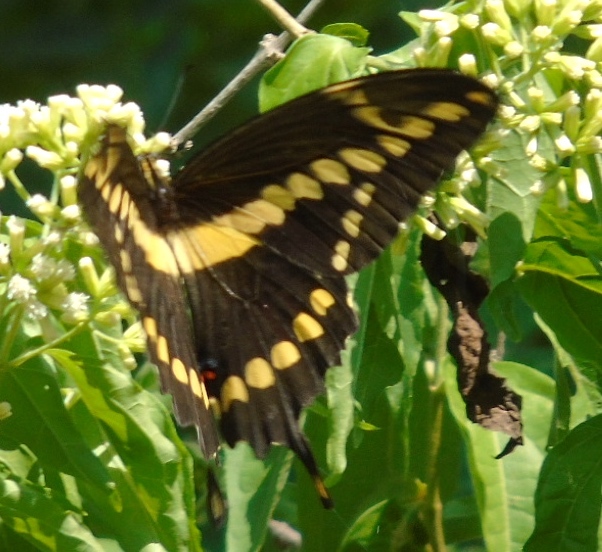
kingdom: Animalia
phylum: Arthropoda
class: Insecta
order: Lepidoptera
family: Papilionidae
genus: Papilio
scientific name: Papilio rumiko
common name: Western giant swallowtail
